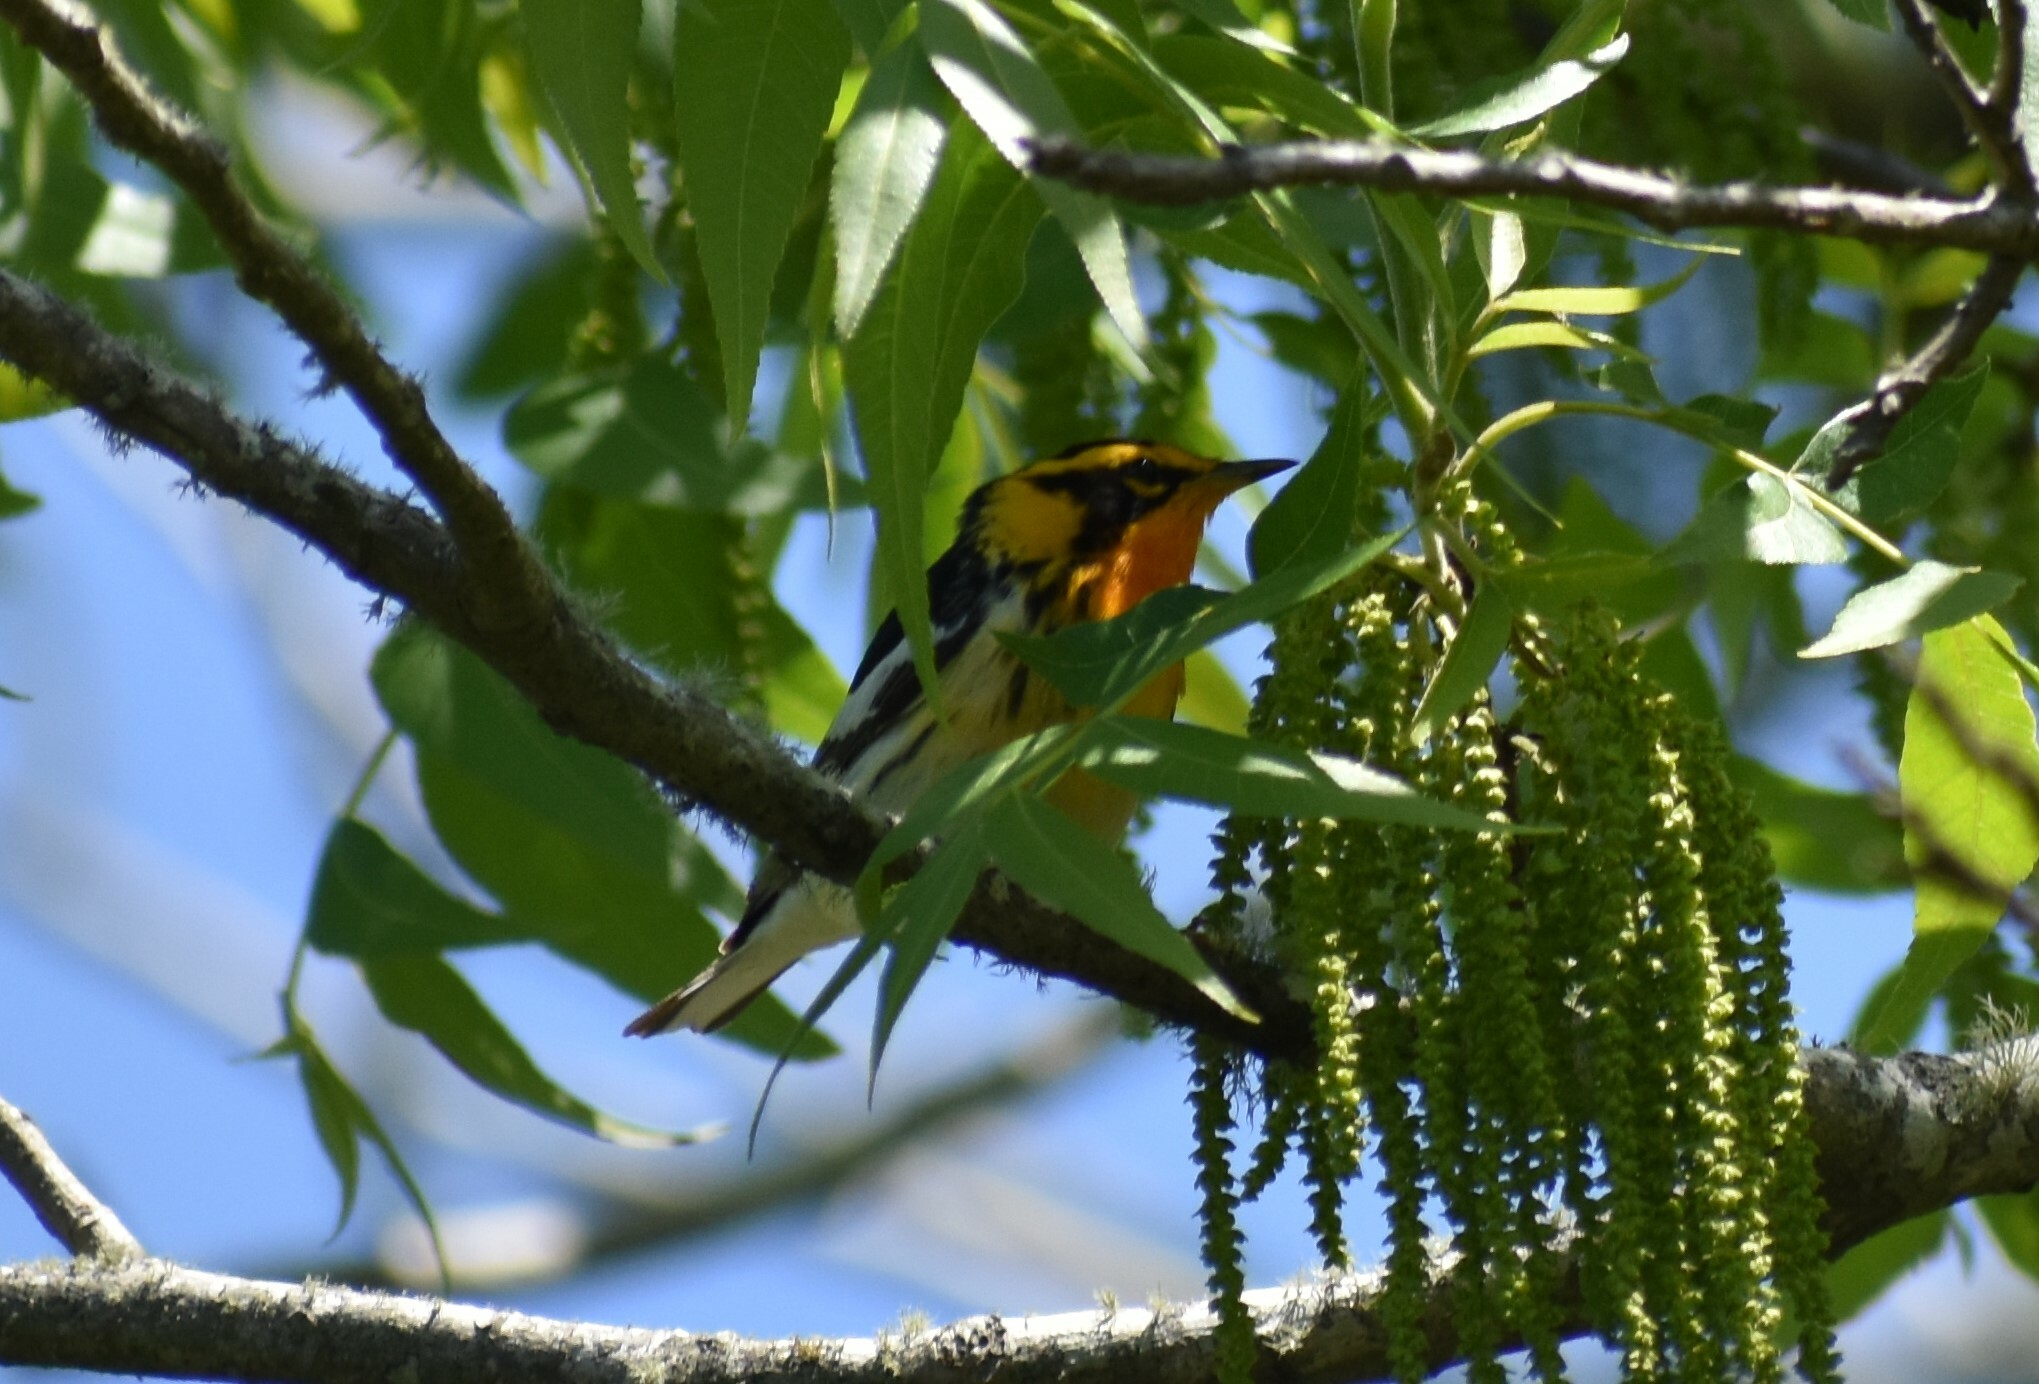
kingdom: Animalia
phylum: Chordata
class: Aves
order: Passeriformes
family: Parulidae
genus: Setophaga
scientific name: Setophaga fusca
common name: Blackburnian warbler
